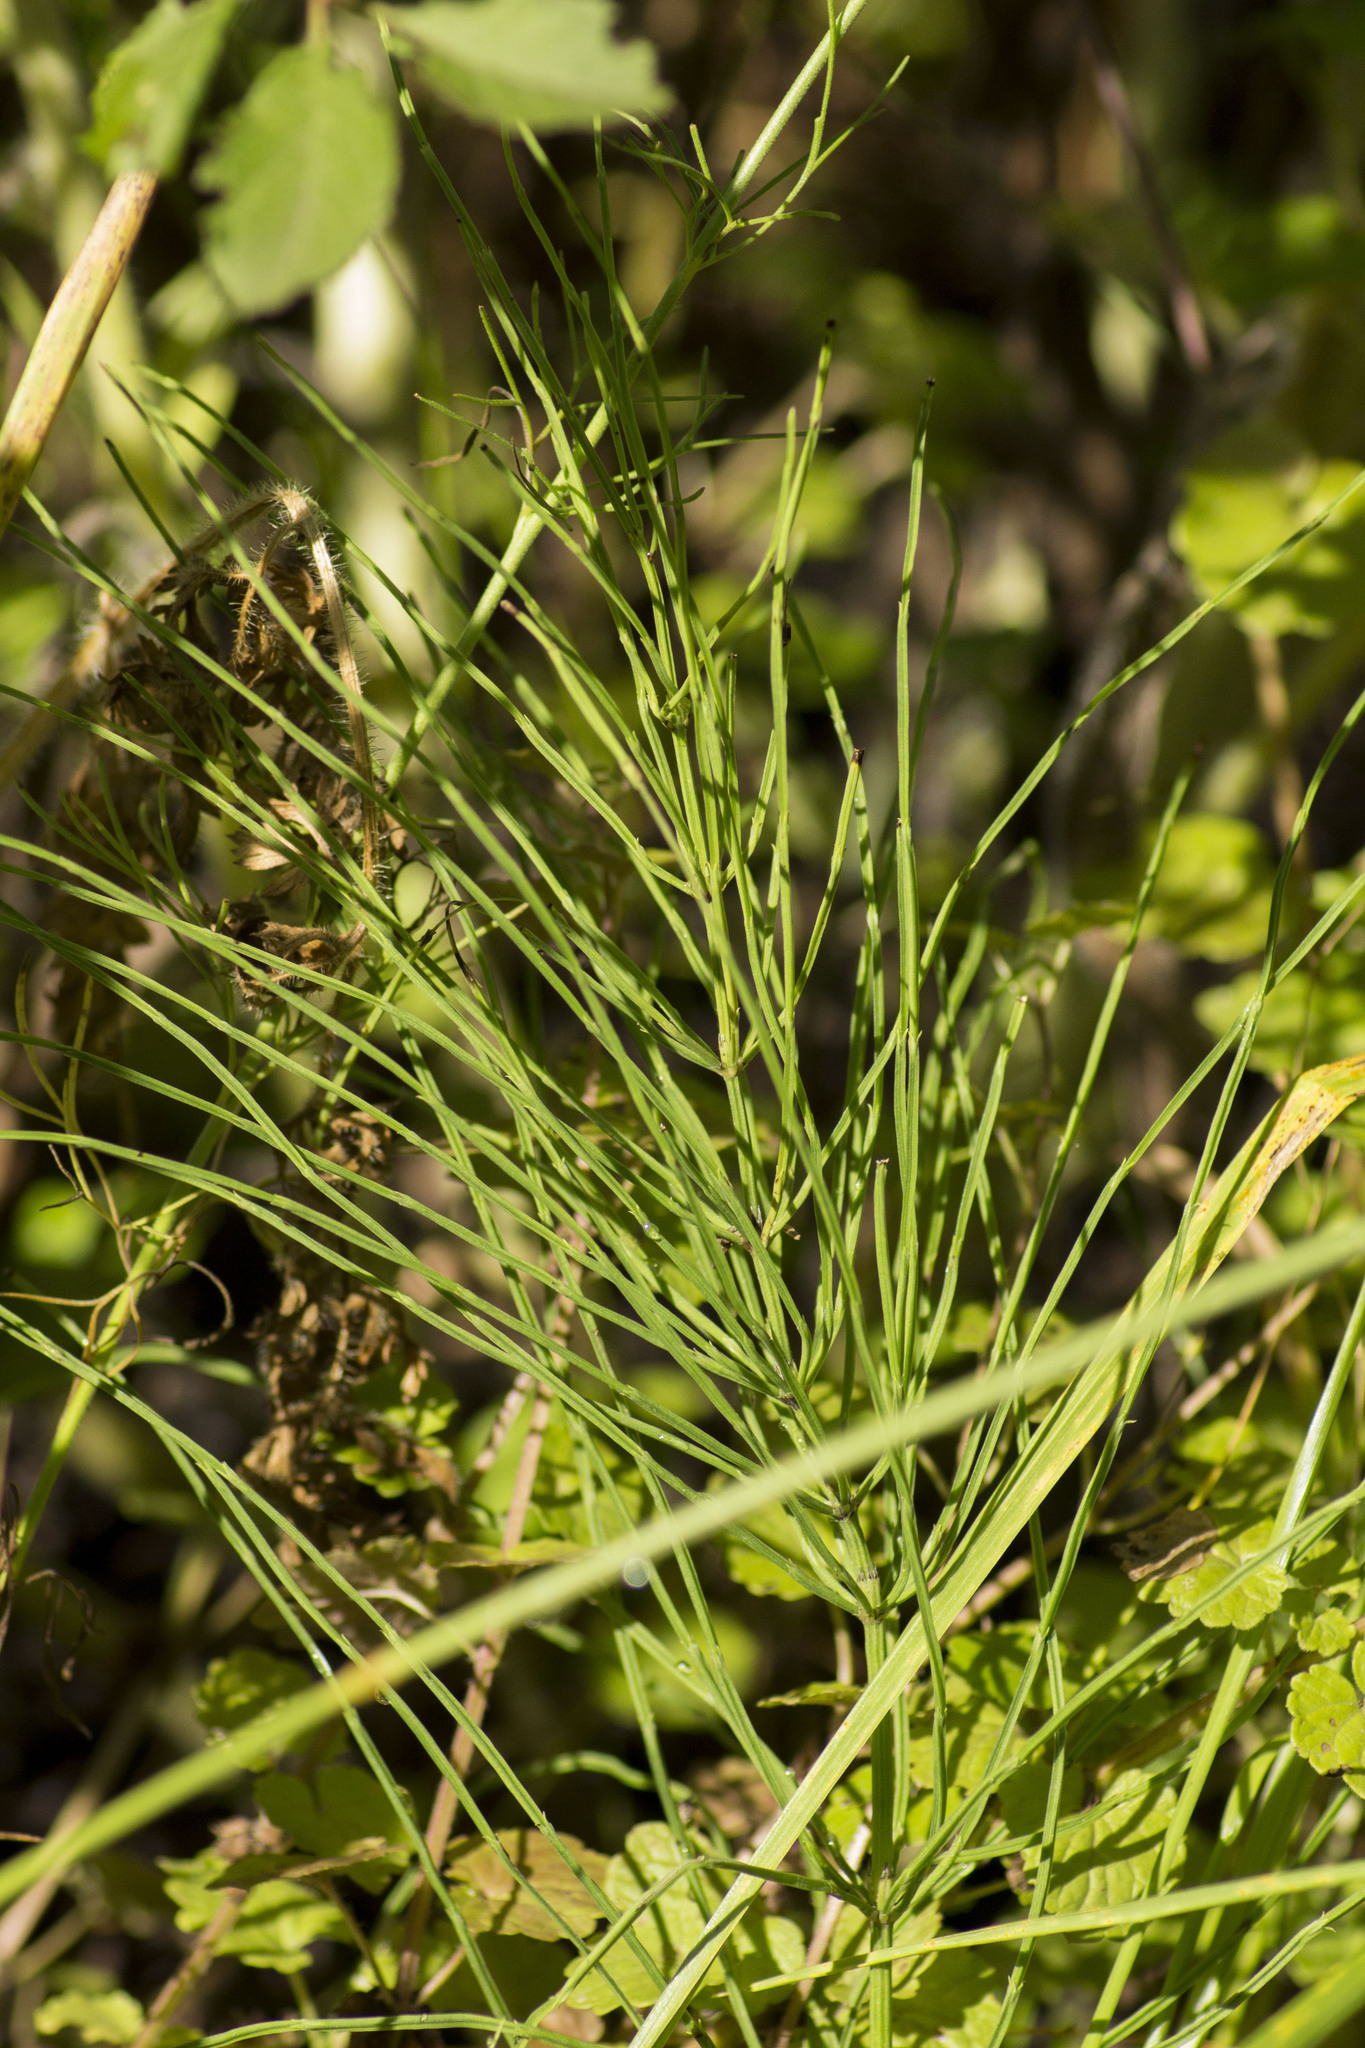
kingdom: Plantae
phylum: Tracheophyta
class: Polypodiopsida
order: Equisetales
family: Equisetaceae
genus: Equisetum
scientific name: Equisetum arvense
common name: Field horsetail
